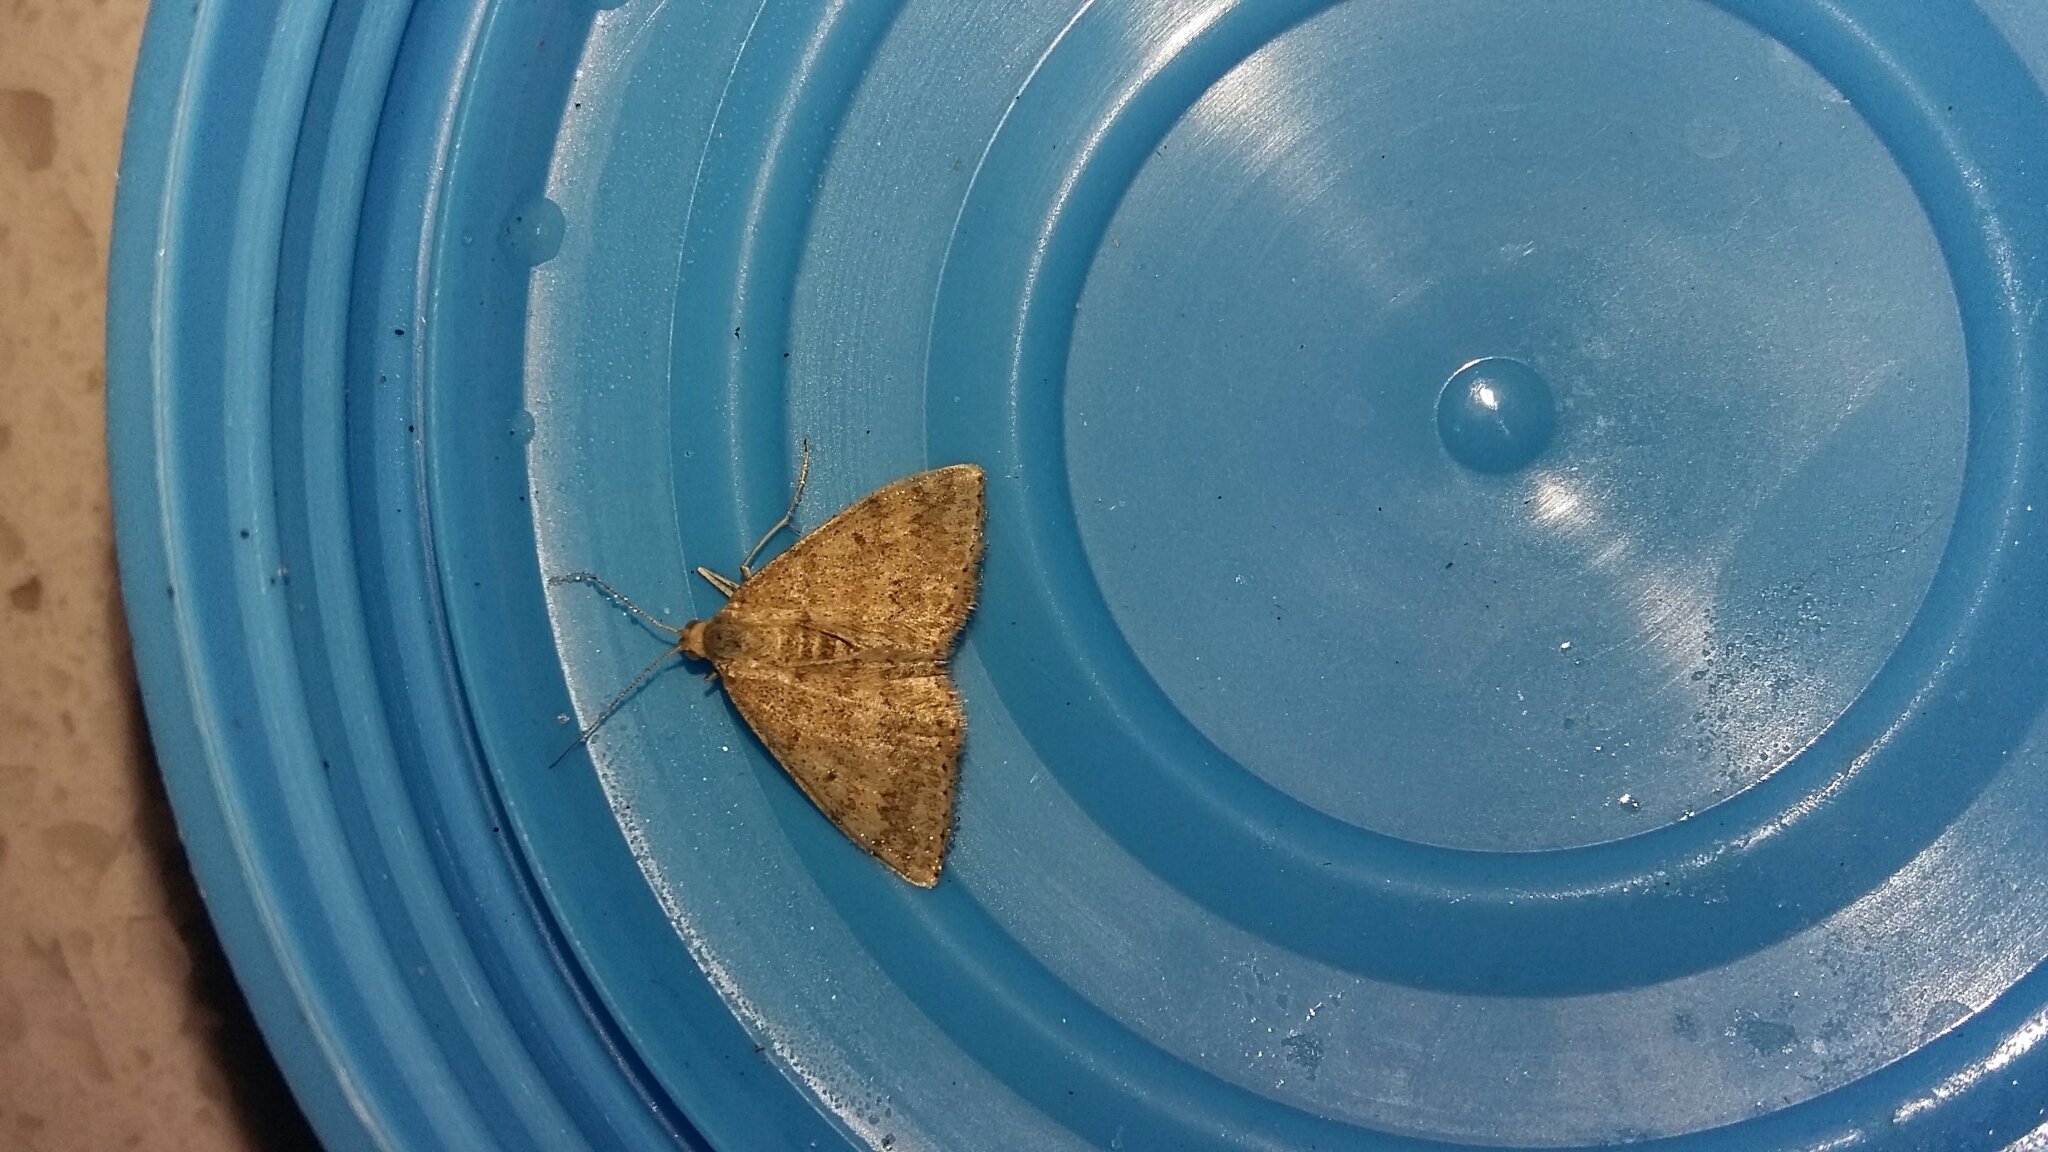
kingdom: Animalia
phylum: Arthropoda
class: Insecta
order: Lepidoptera
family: Geometridae
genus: Scopula
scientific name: Scopula rubraria
